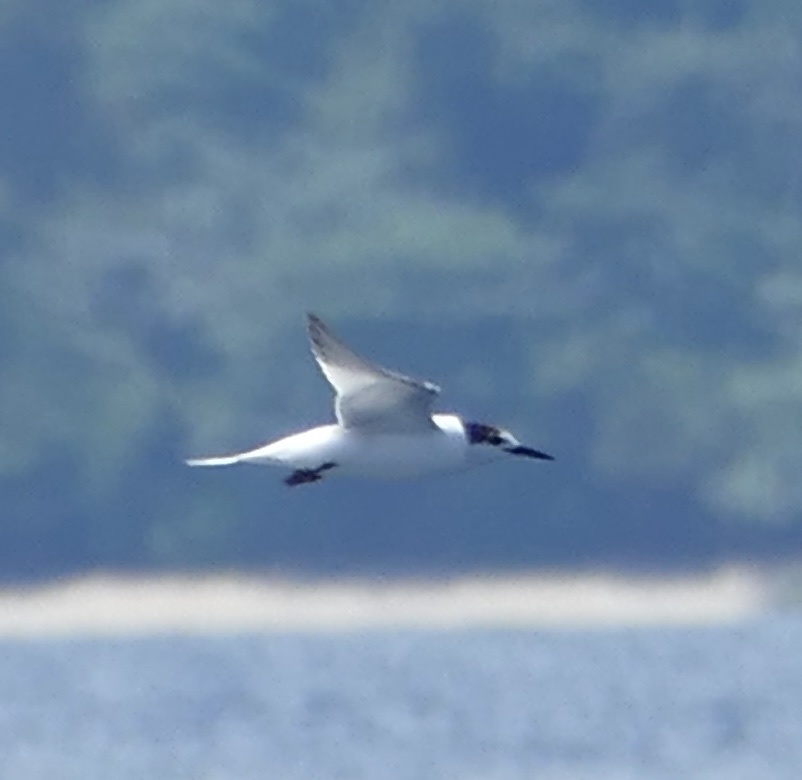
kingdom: Animalia
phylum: Chordata
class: Aves
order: Charadriiformes
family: Laridae
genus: Sterna
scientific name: Sterna hirundo
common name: Common tern
